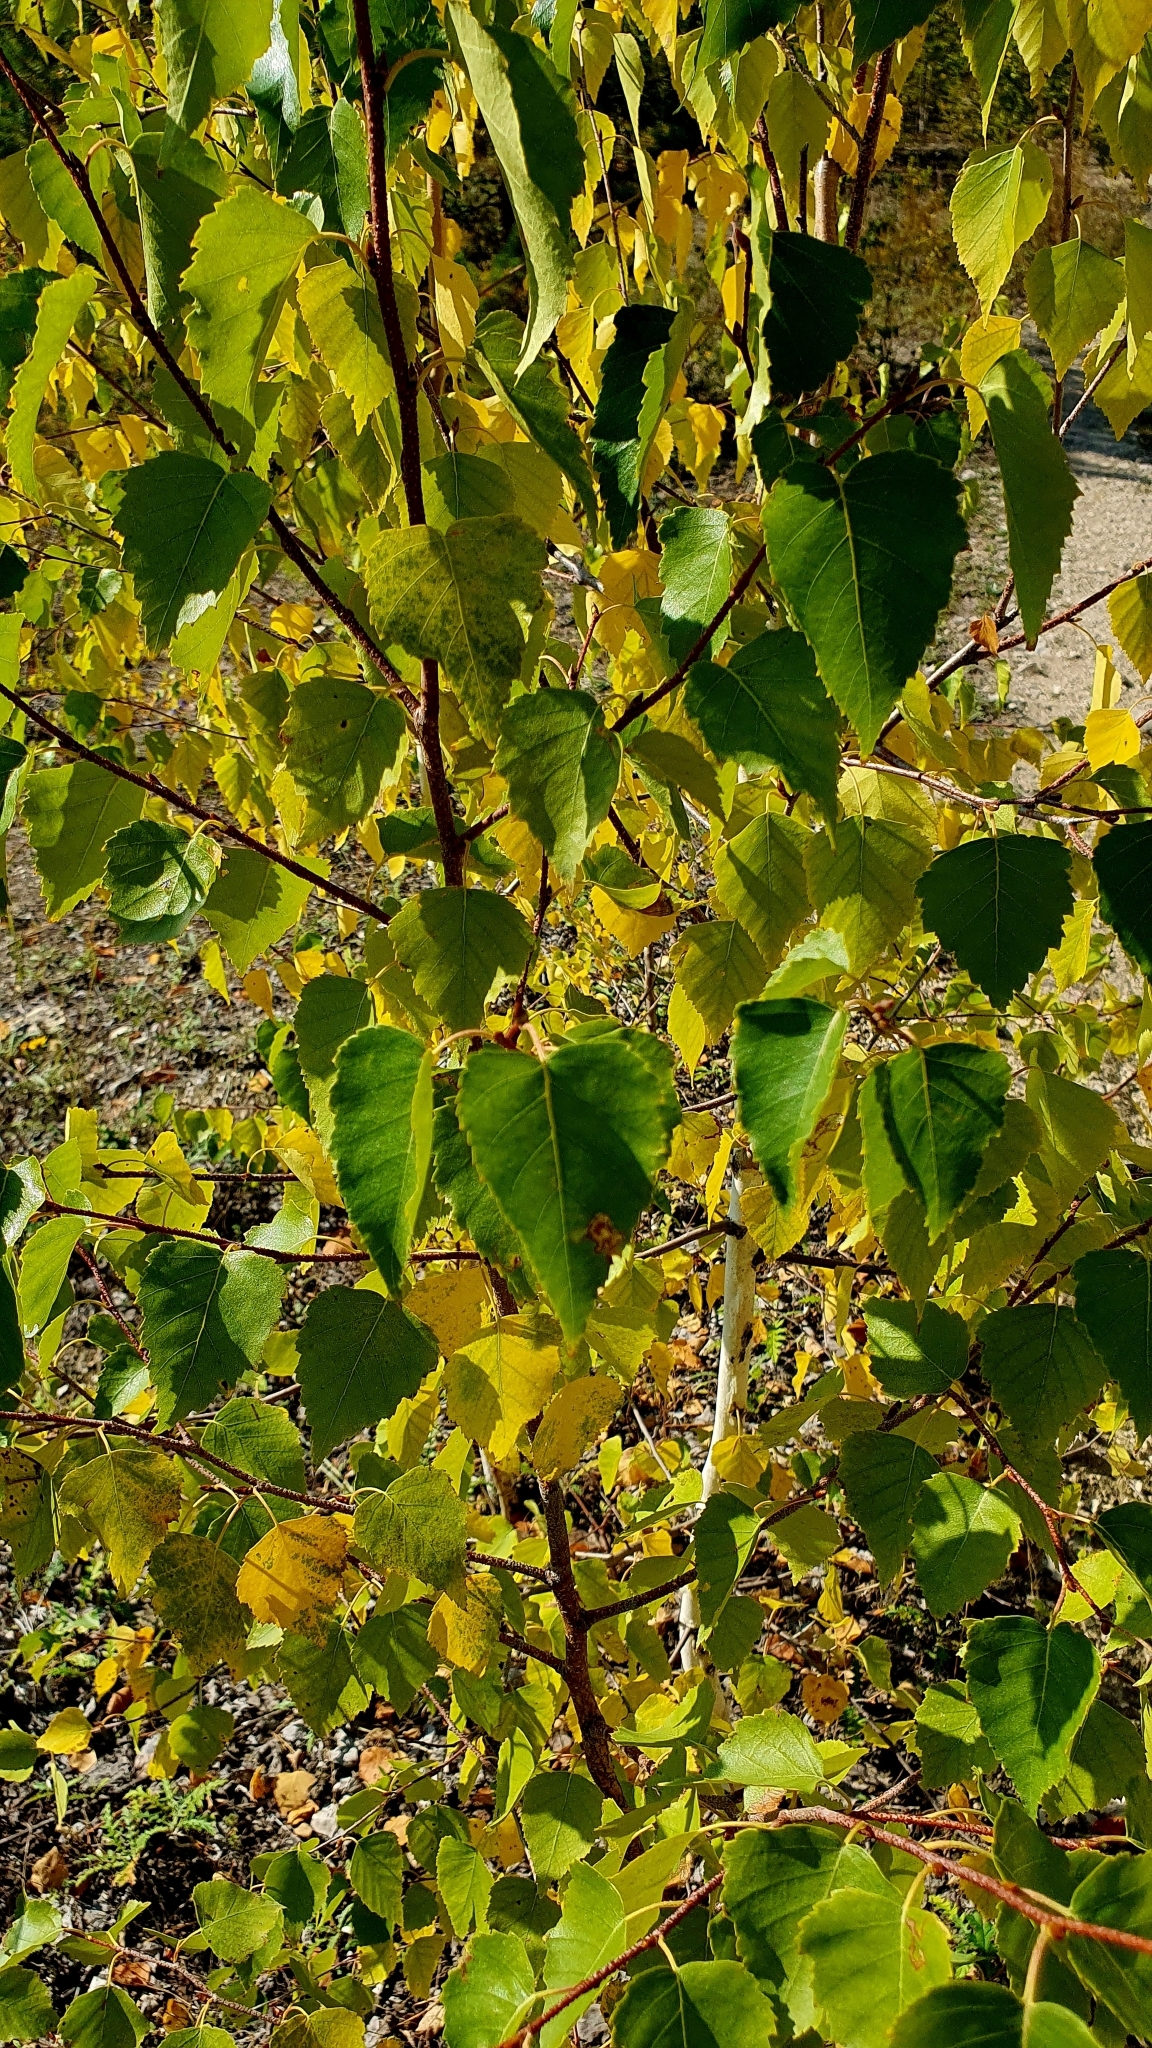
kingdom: Plantae
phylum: Tracheophyta
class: Magnoliopsida
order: Fagales
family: Betulaceae
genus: Betula
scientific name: Betula pendula
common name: Silver birch
